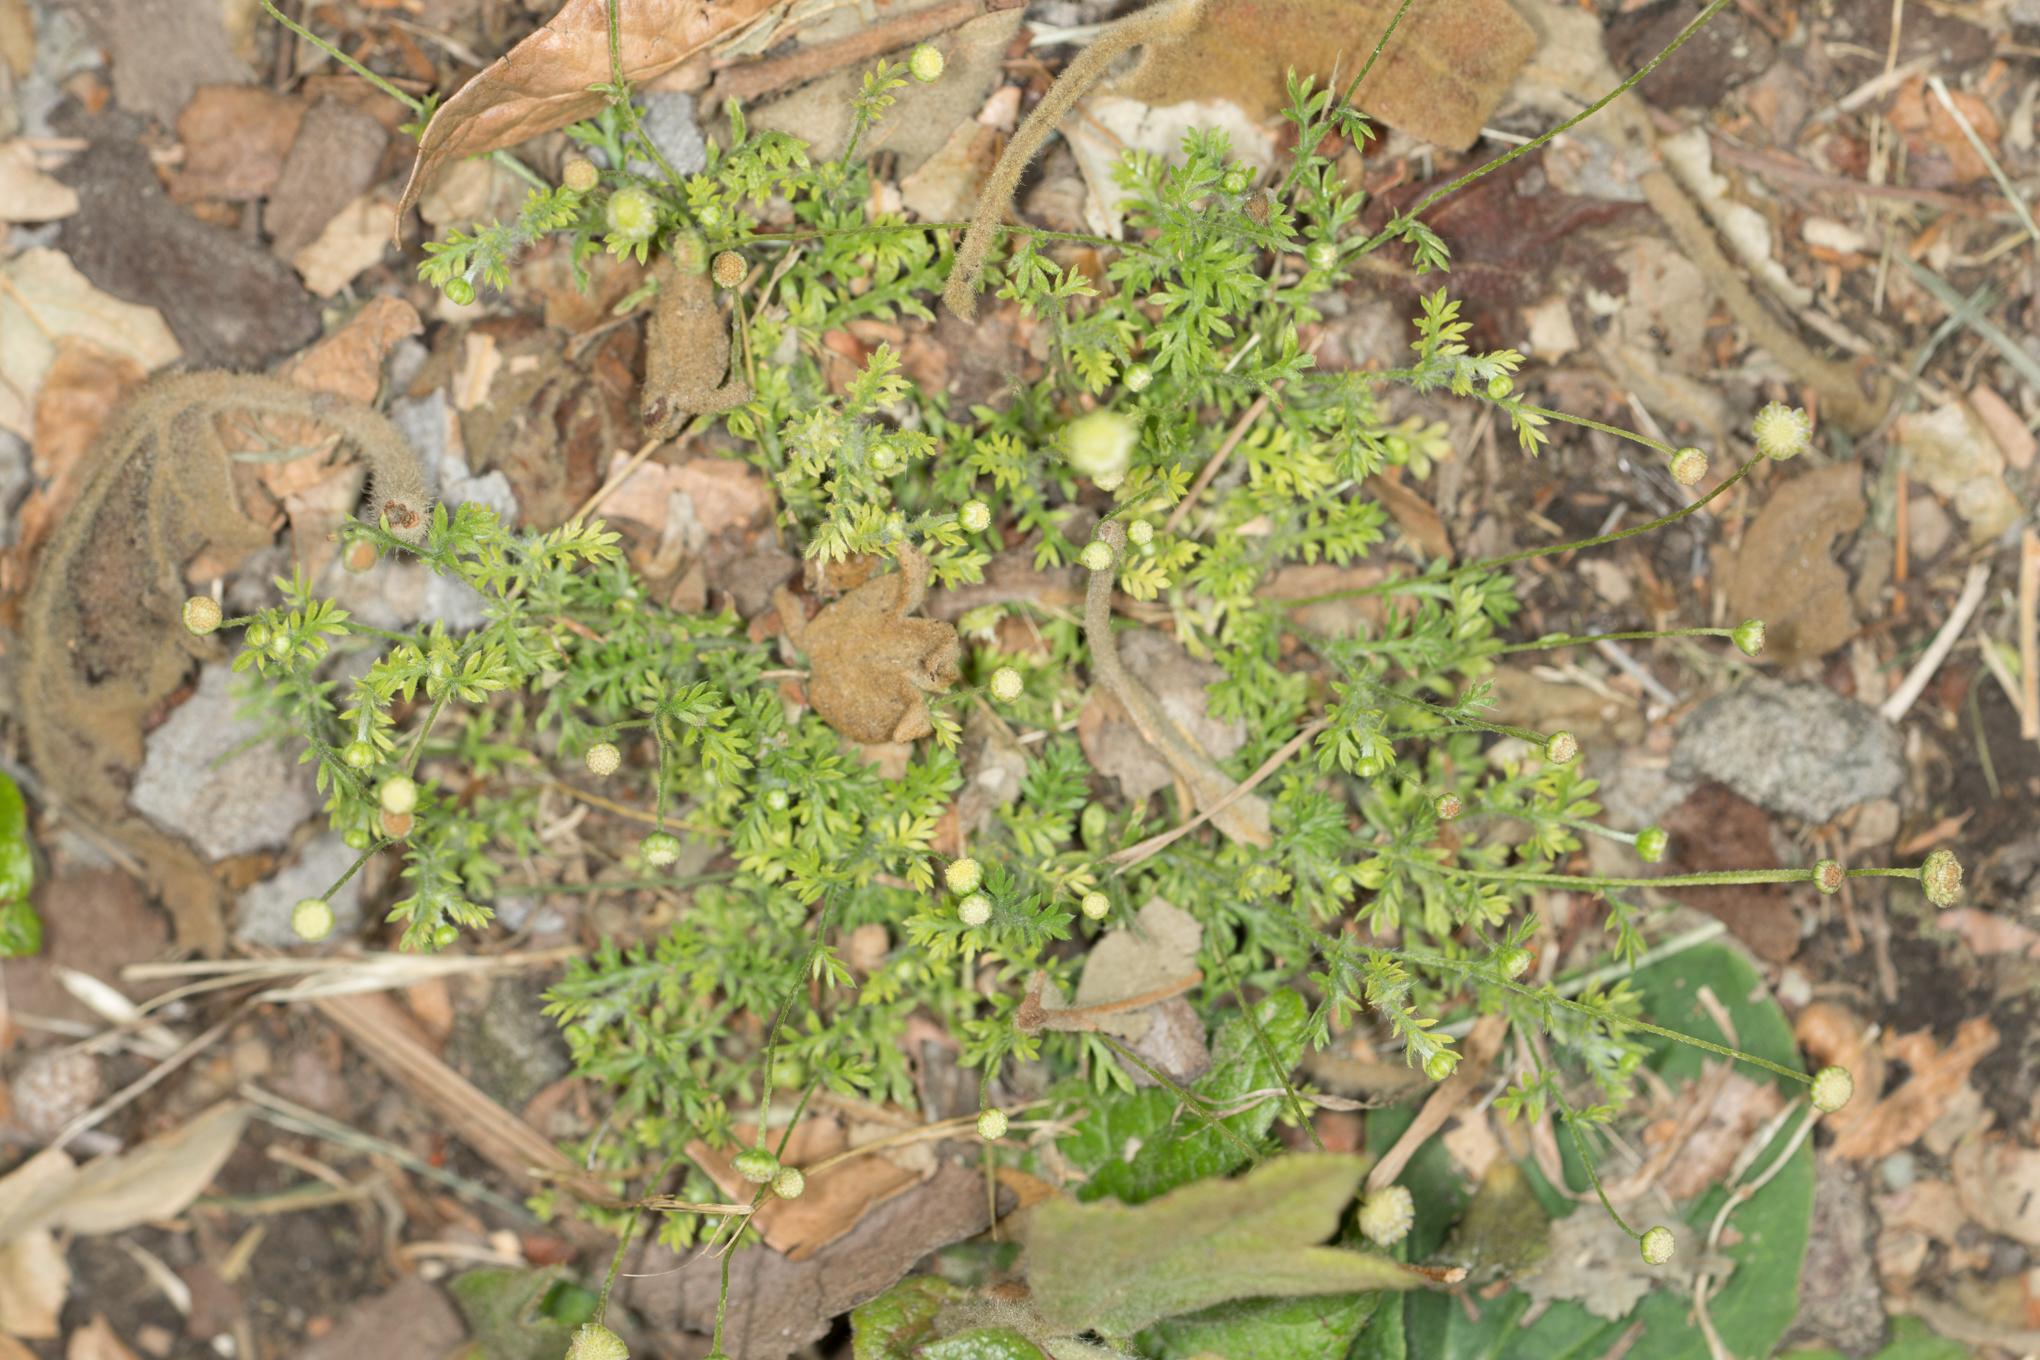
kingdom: Plantae
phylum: Tracheophyta
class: Magnoliopsida
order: Asterales
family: Asteraceae
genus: Cotula
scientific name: Cotula australis
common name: Australian waterbuttons
